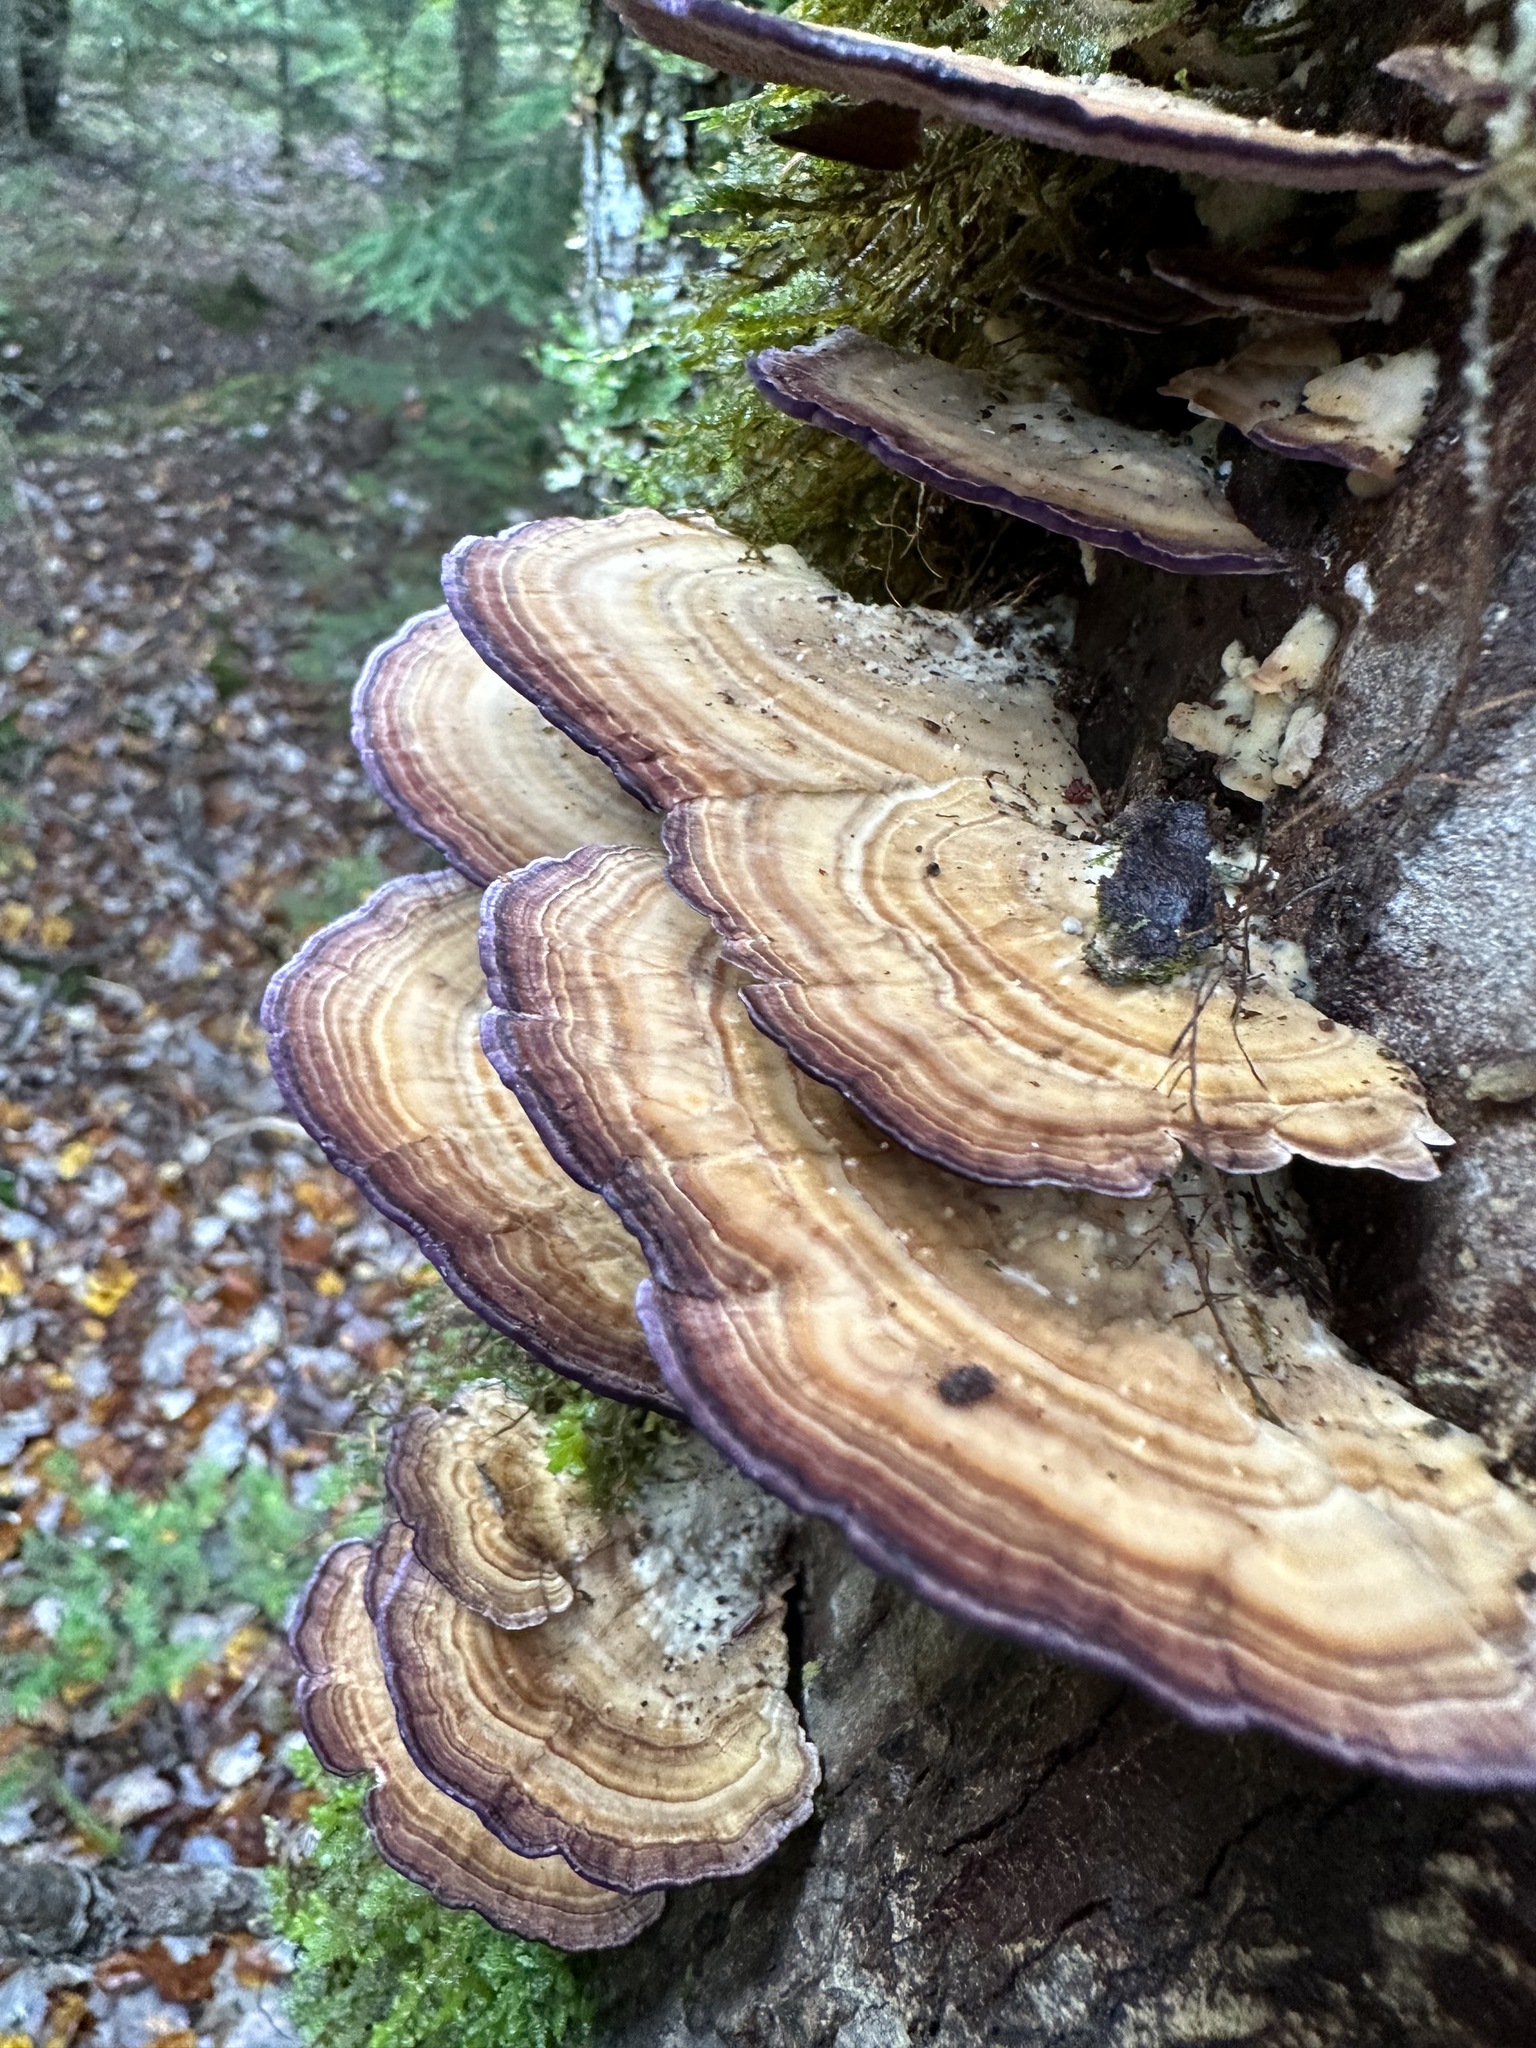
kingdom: Fungi
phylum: Basidiomycota
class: Agaricomycetes
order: Hymenochaetales
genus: Trichaptum
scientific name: Trichaptum biforme
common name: Violet-toothed polypore
